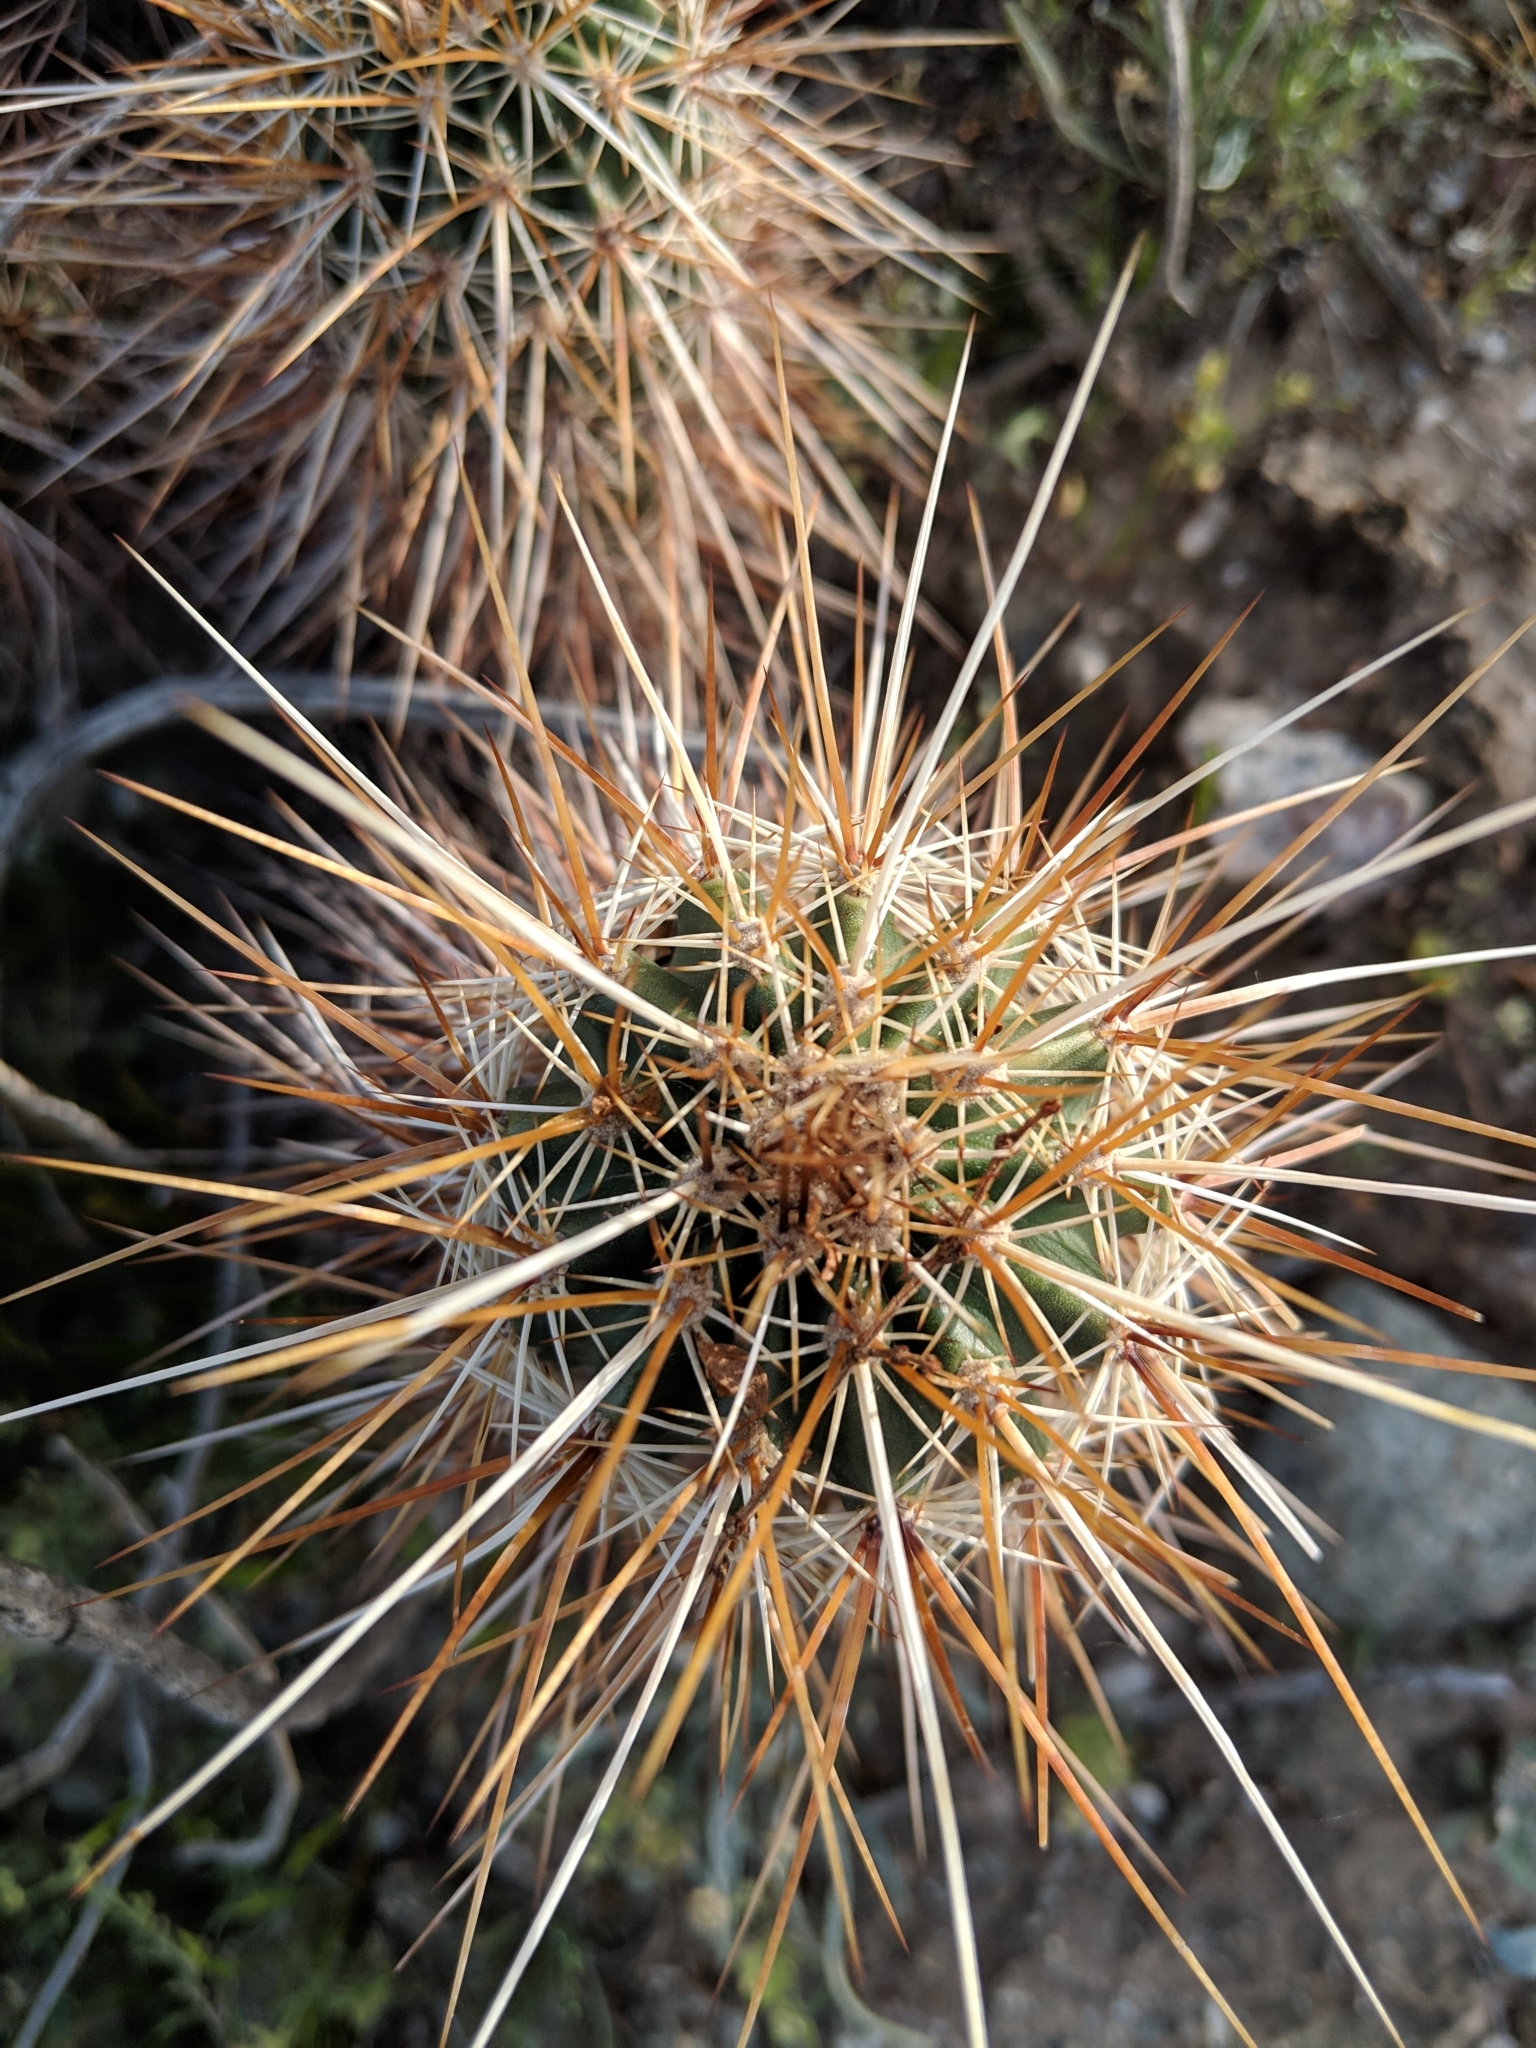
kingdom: Plantae
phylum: Tracheophyta
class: Magnoliopsida
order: Caryophyllales
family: Cactaceae
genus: Echinocereus
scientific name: Echinocereus engelmannii
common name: Engelmann's hedgehog cactus
